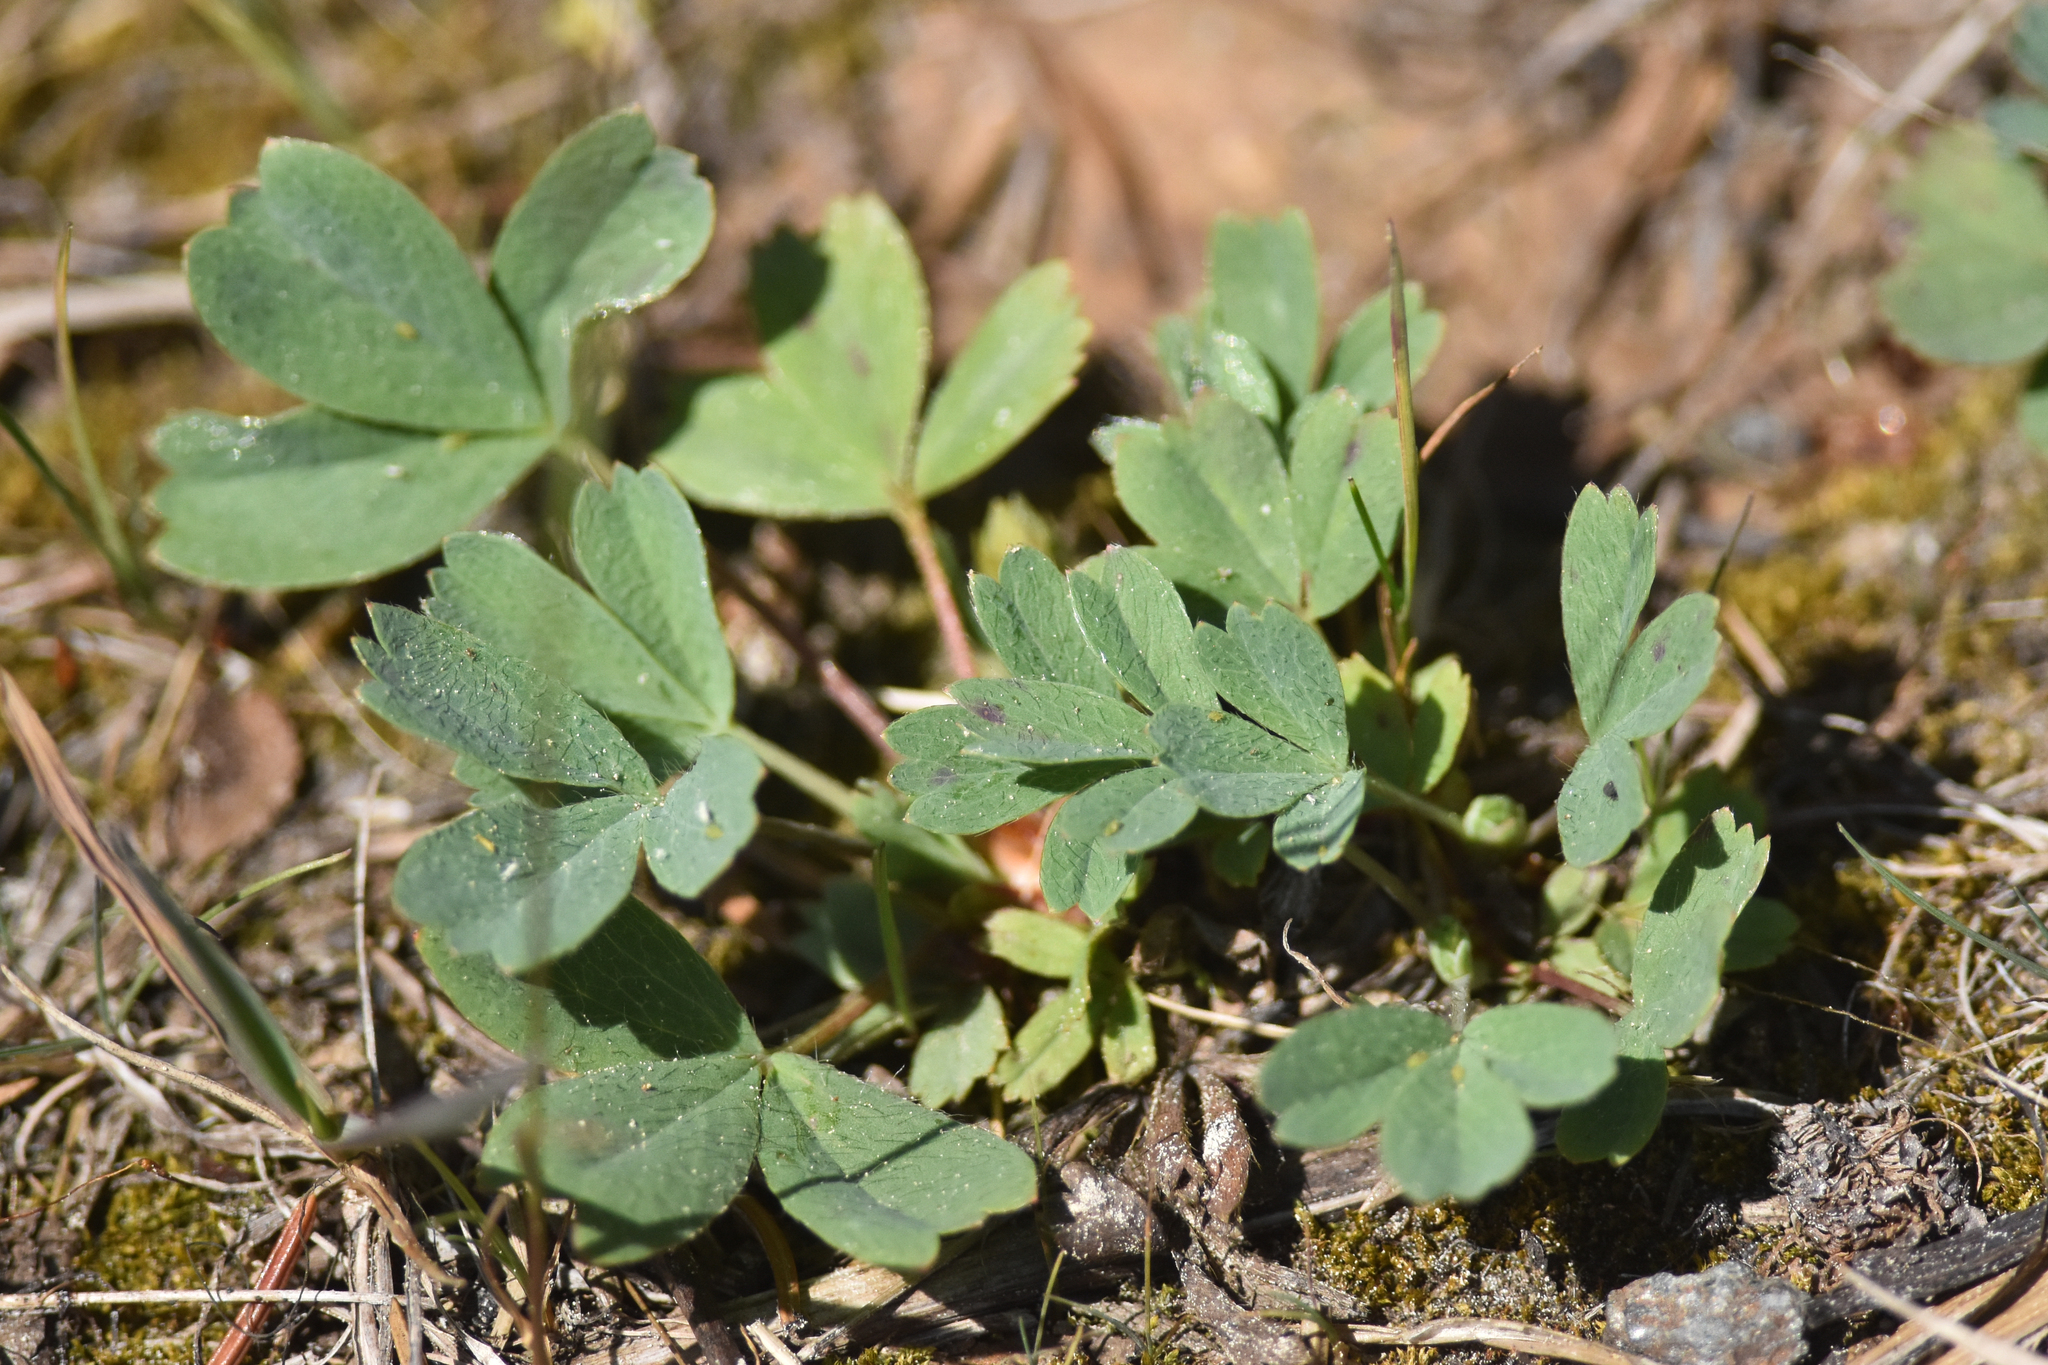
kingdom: Plantae
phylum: Tracheophyta
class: Magnoliopsida
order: Rosales
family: Rosaceae
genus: Sibbaldia
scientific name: Sibbaldia procumbens
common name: Creeping sibbaldia
